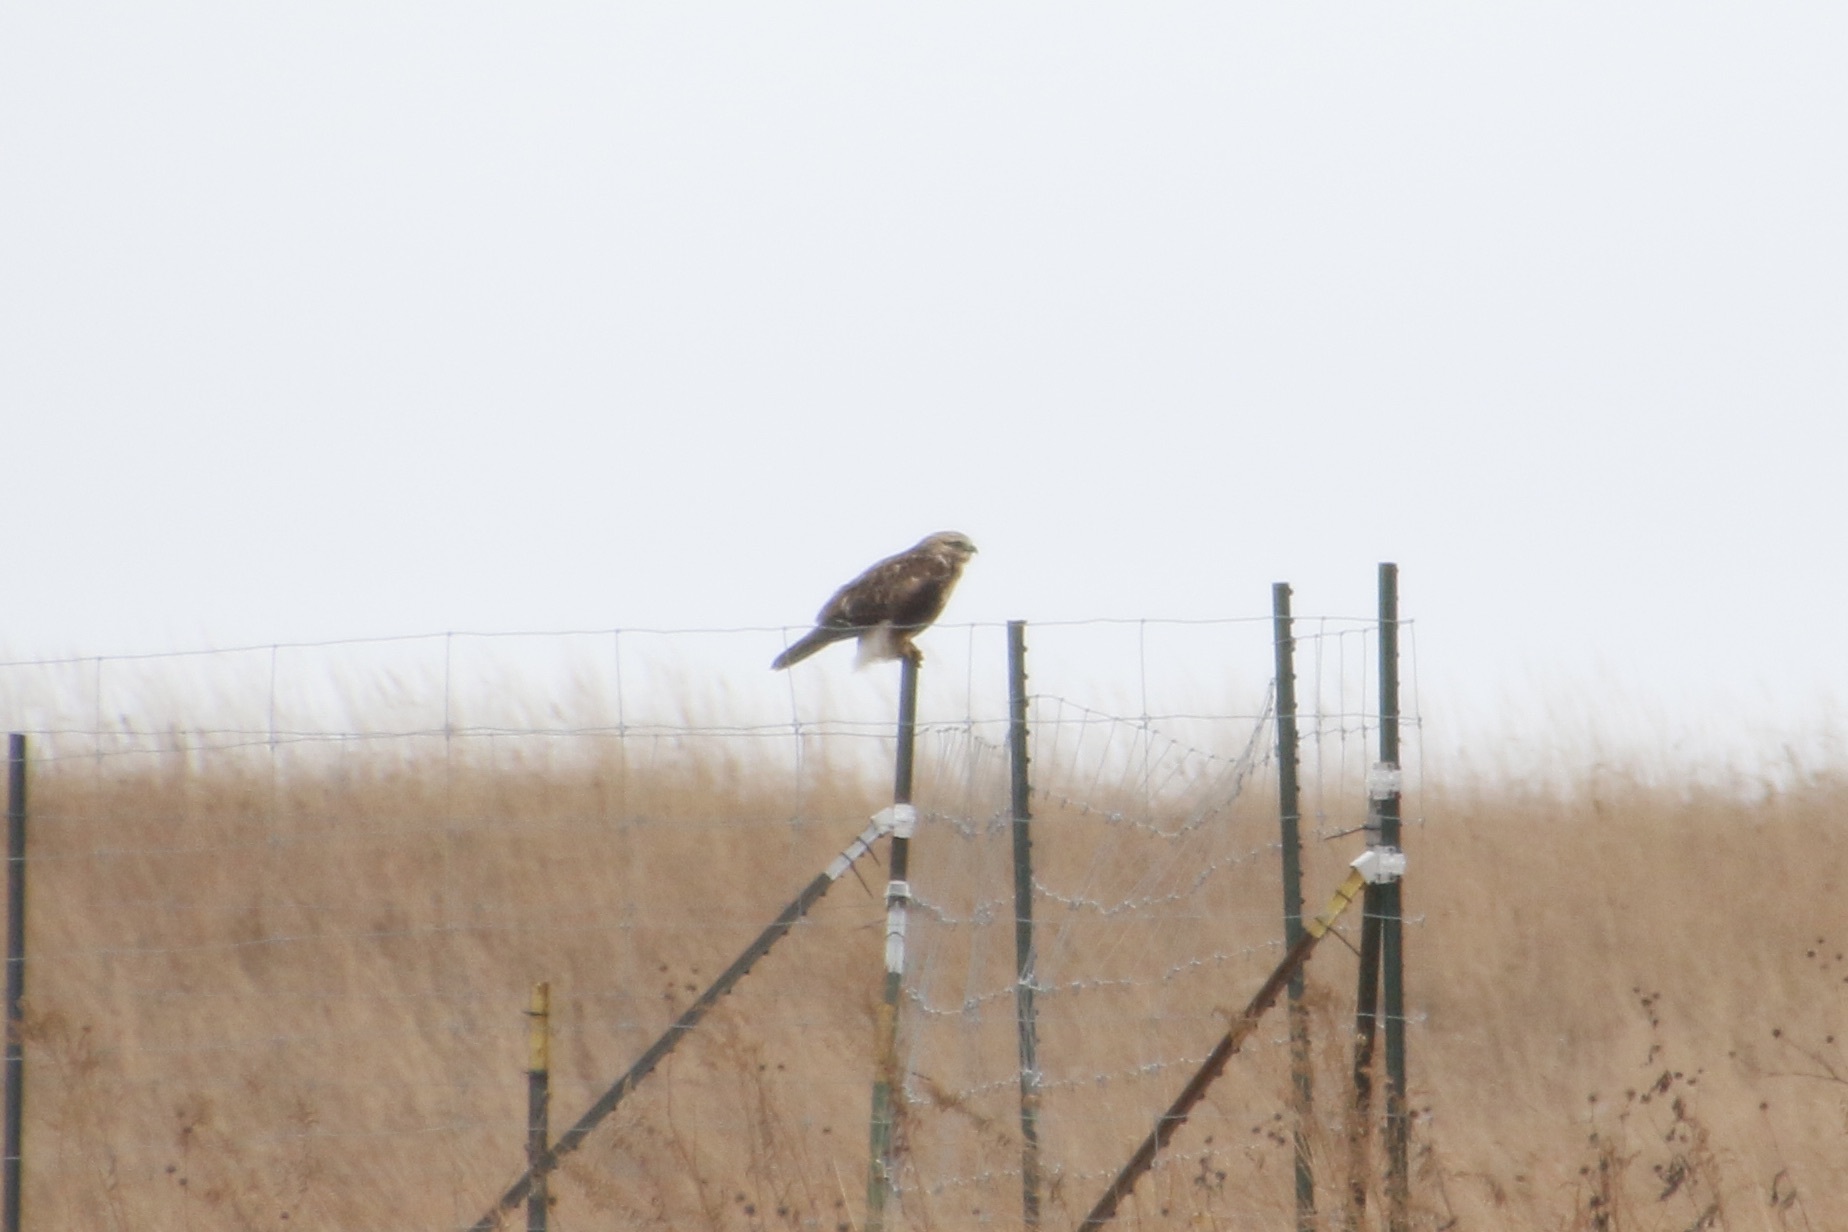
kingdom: Animalia
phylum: Chordata
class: Aves
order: Accipitriformes
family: Accipitridae
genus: Buteo
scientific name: Buteo lagopus
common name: Rough-legged buzzard
